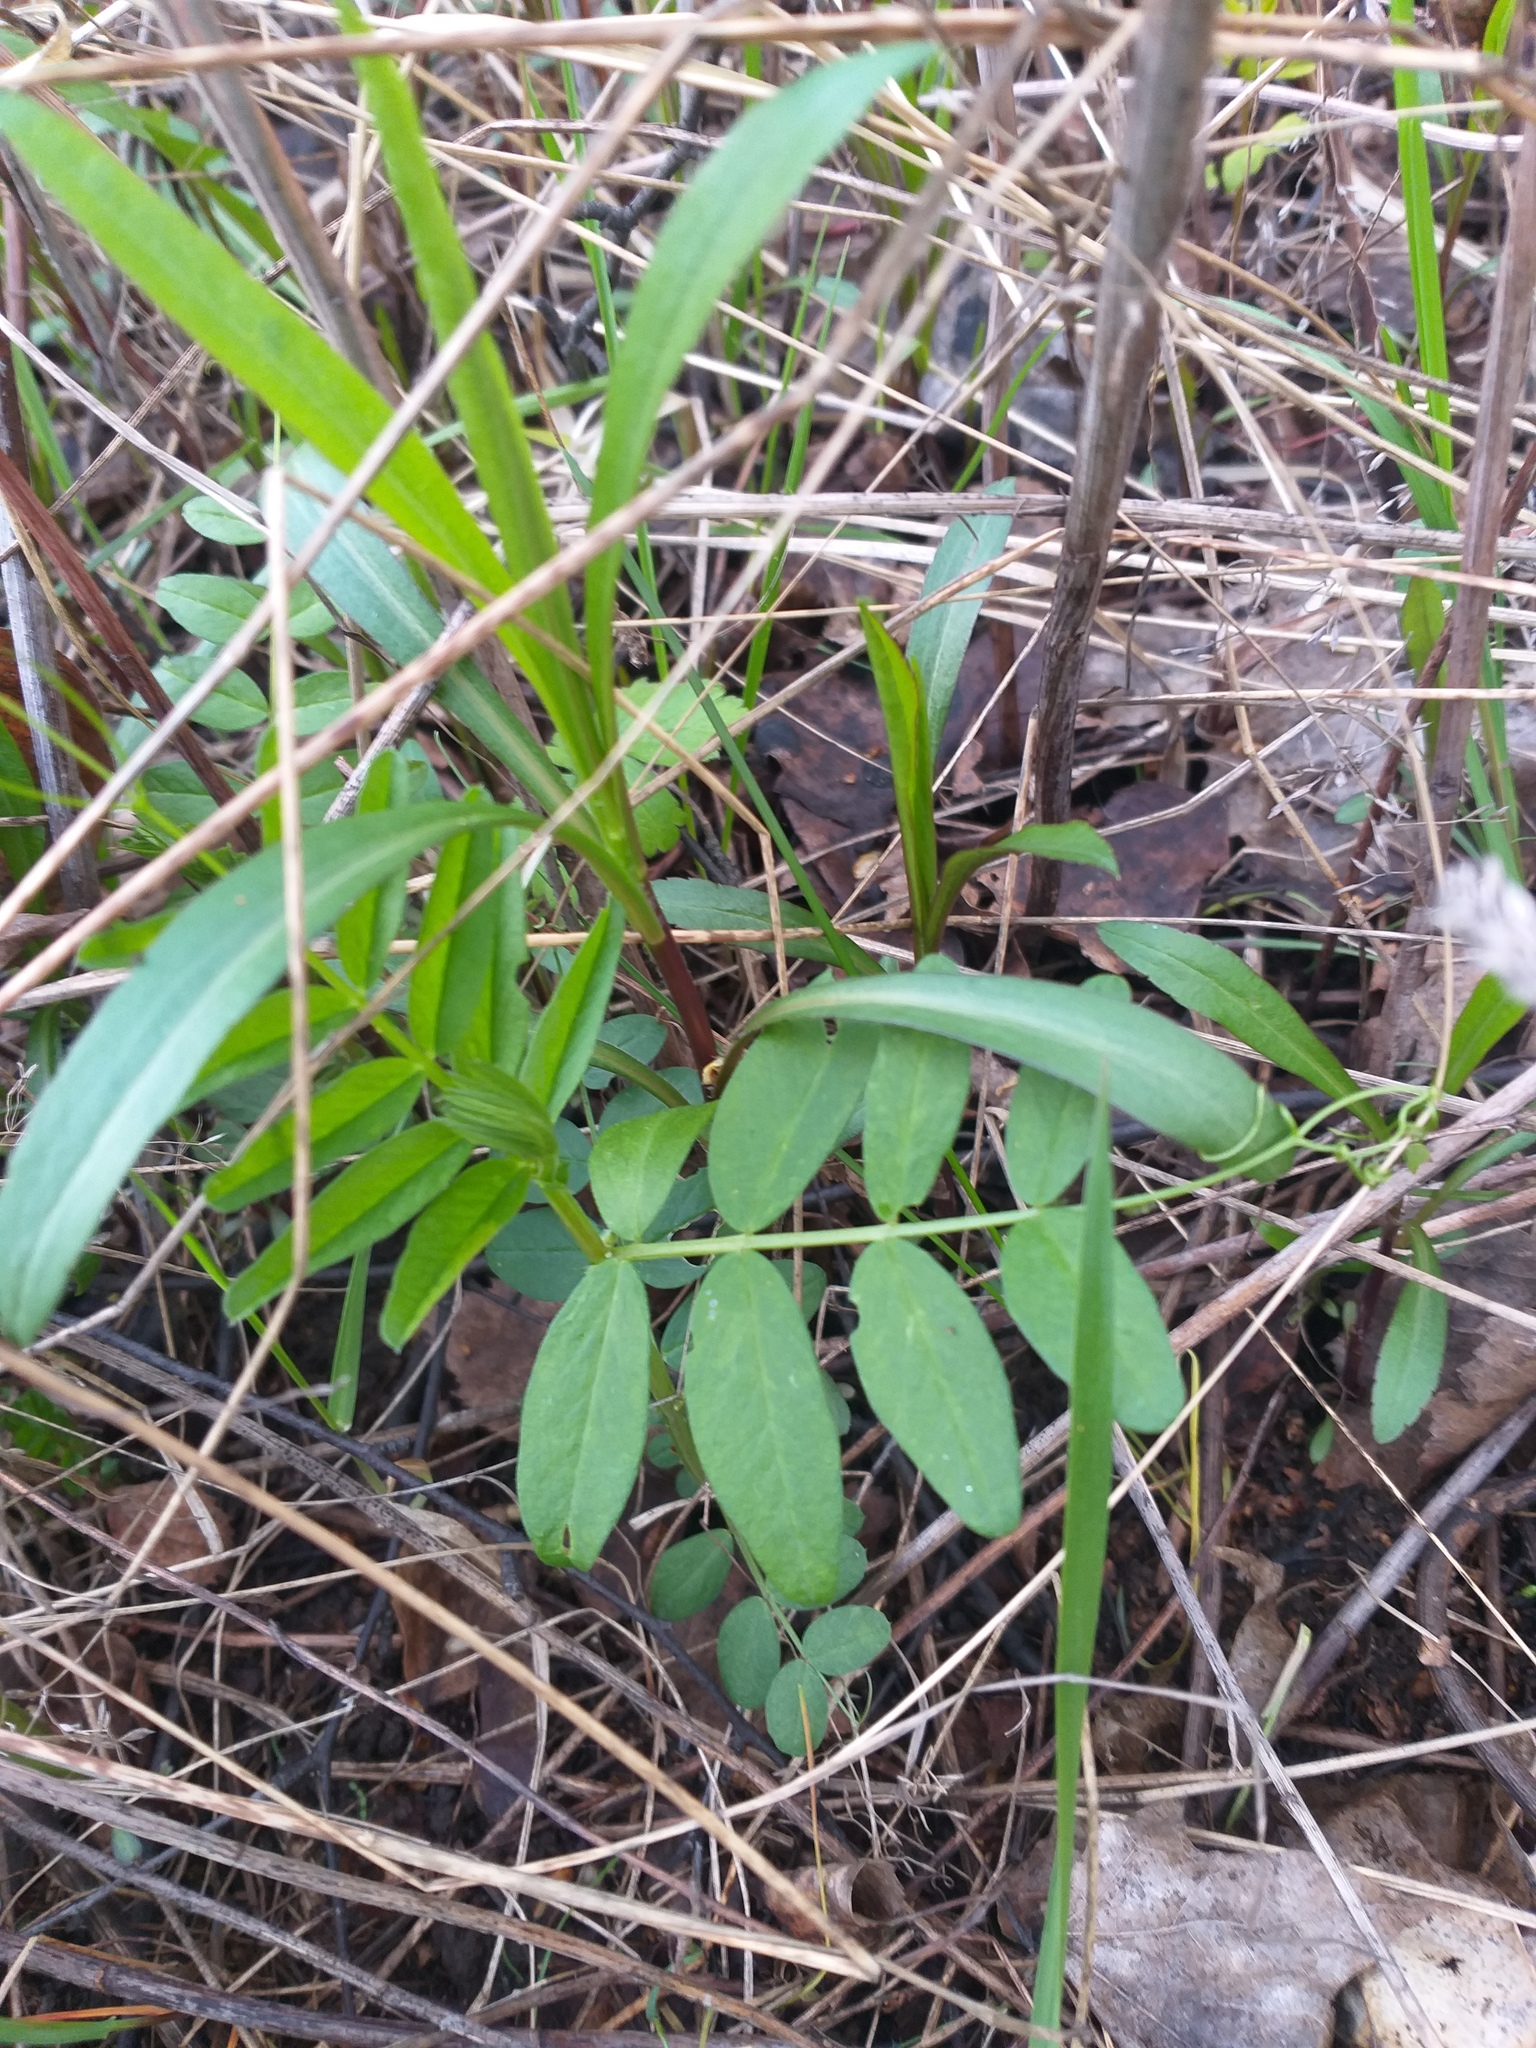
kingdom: Plantae
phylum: Tracheophyta
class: Magnoliopsida
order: Fabales
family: Fabaceae
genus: Vicia
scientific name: Vicia sepium
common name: Bush vetch
